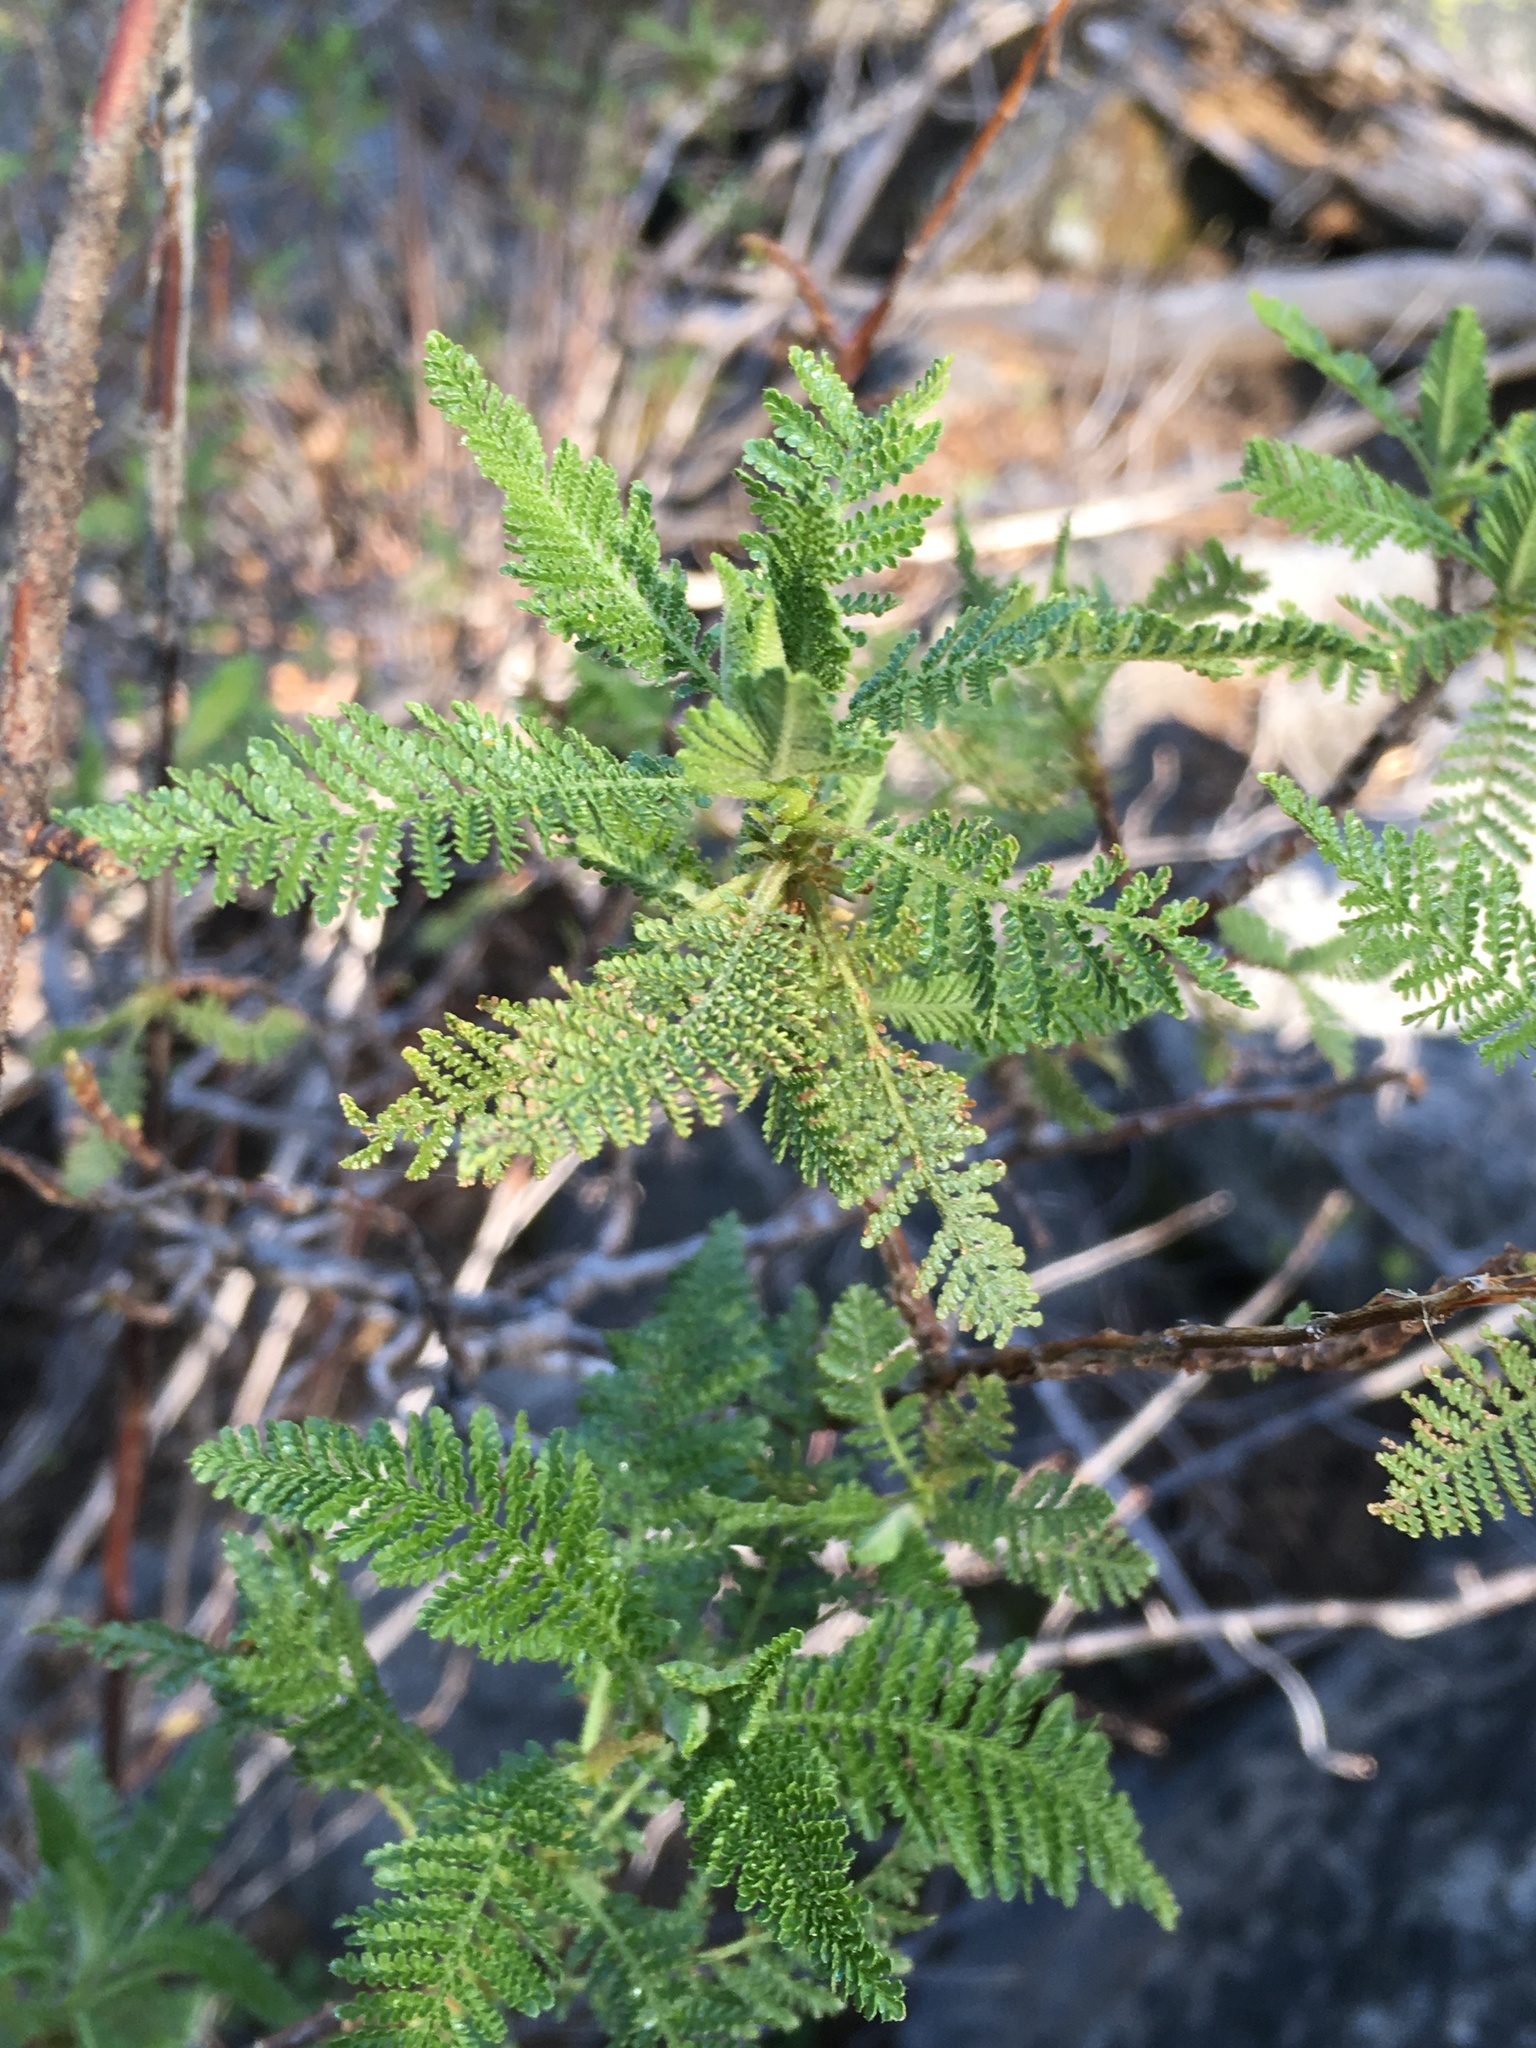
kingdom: Plantae
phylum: Tracheophyta
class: Magnoliopsida
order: Rosales
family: Rosaceae
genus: Chamaebatiaria
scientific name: Chamaebatiaria millefolium
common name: Fernbush
